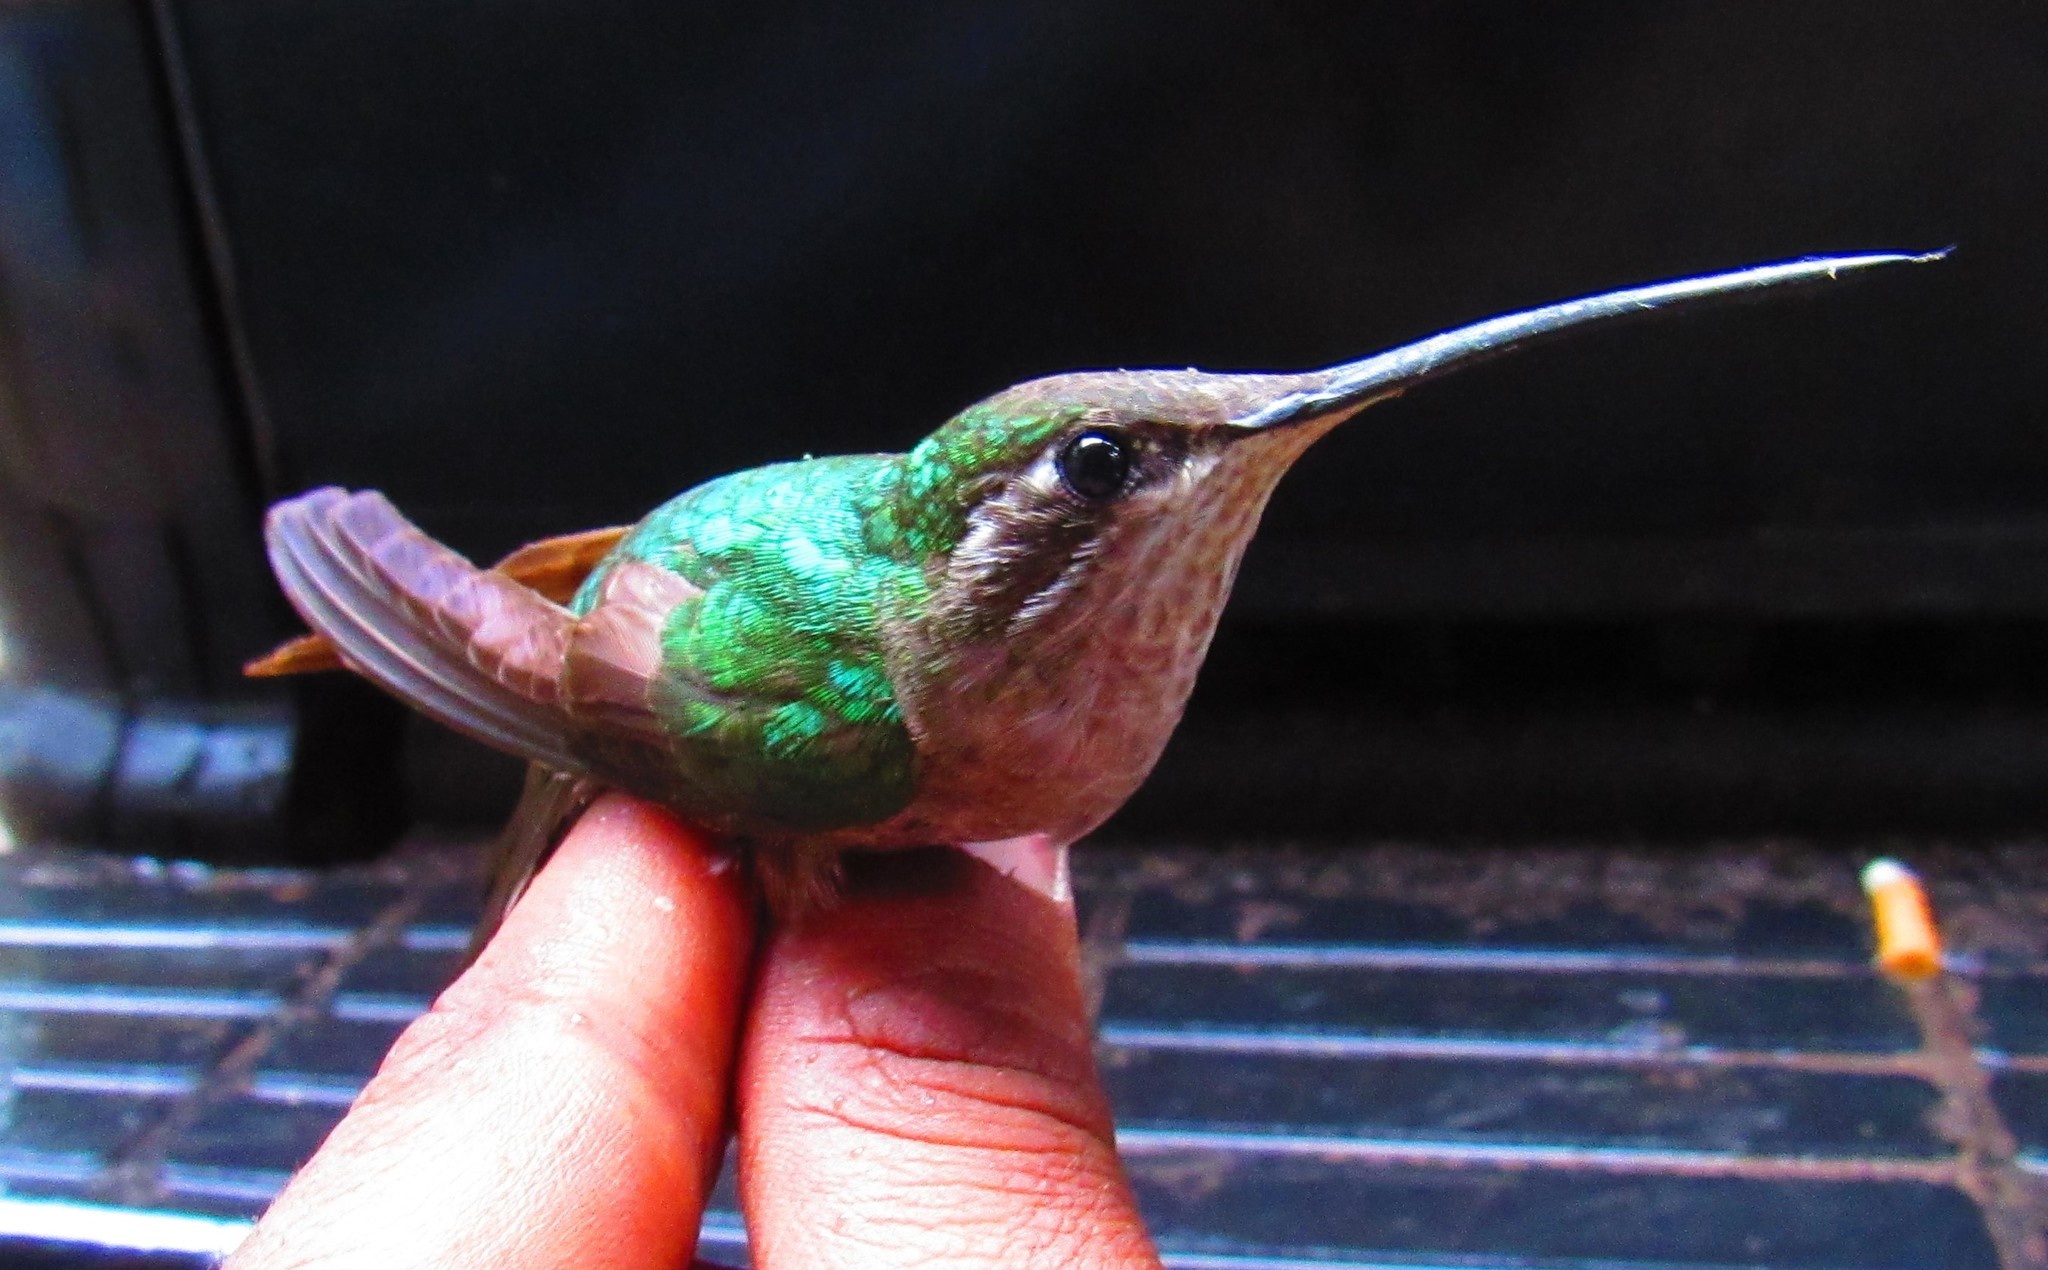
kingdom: Animalia
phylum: Chordata
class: Aves
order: Apodiformes
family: Trochilidae
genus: Eugenes
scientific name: Eugenes fulgens
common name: Magnificent hummingbird
